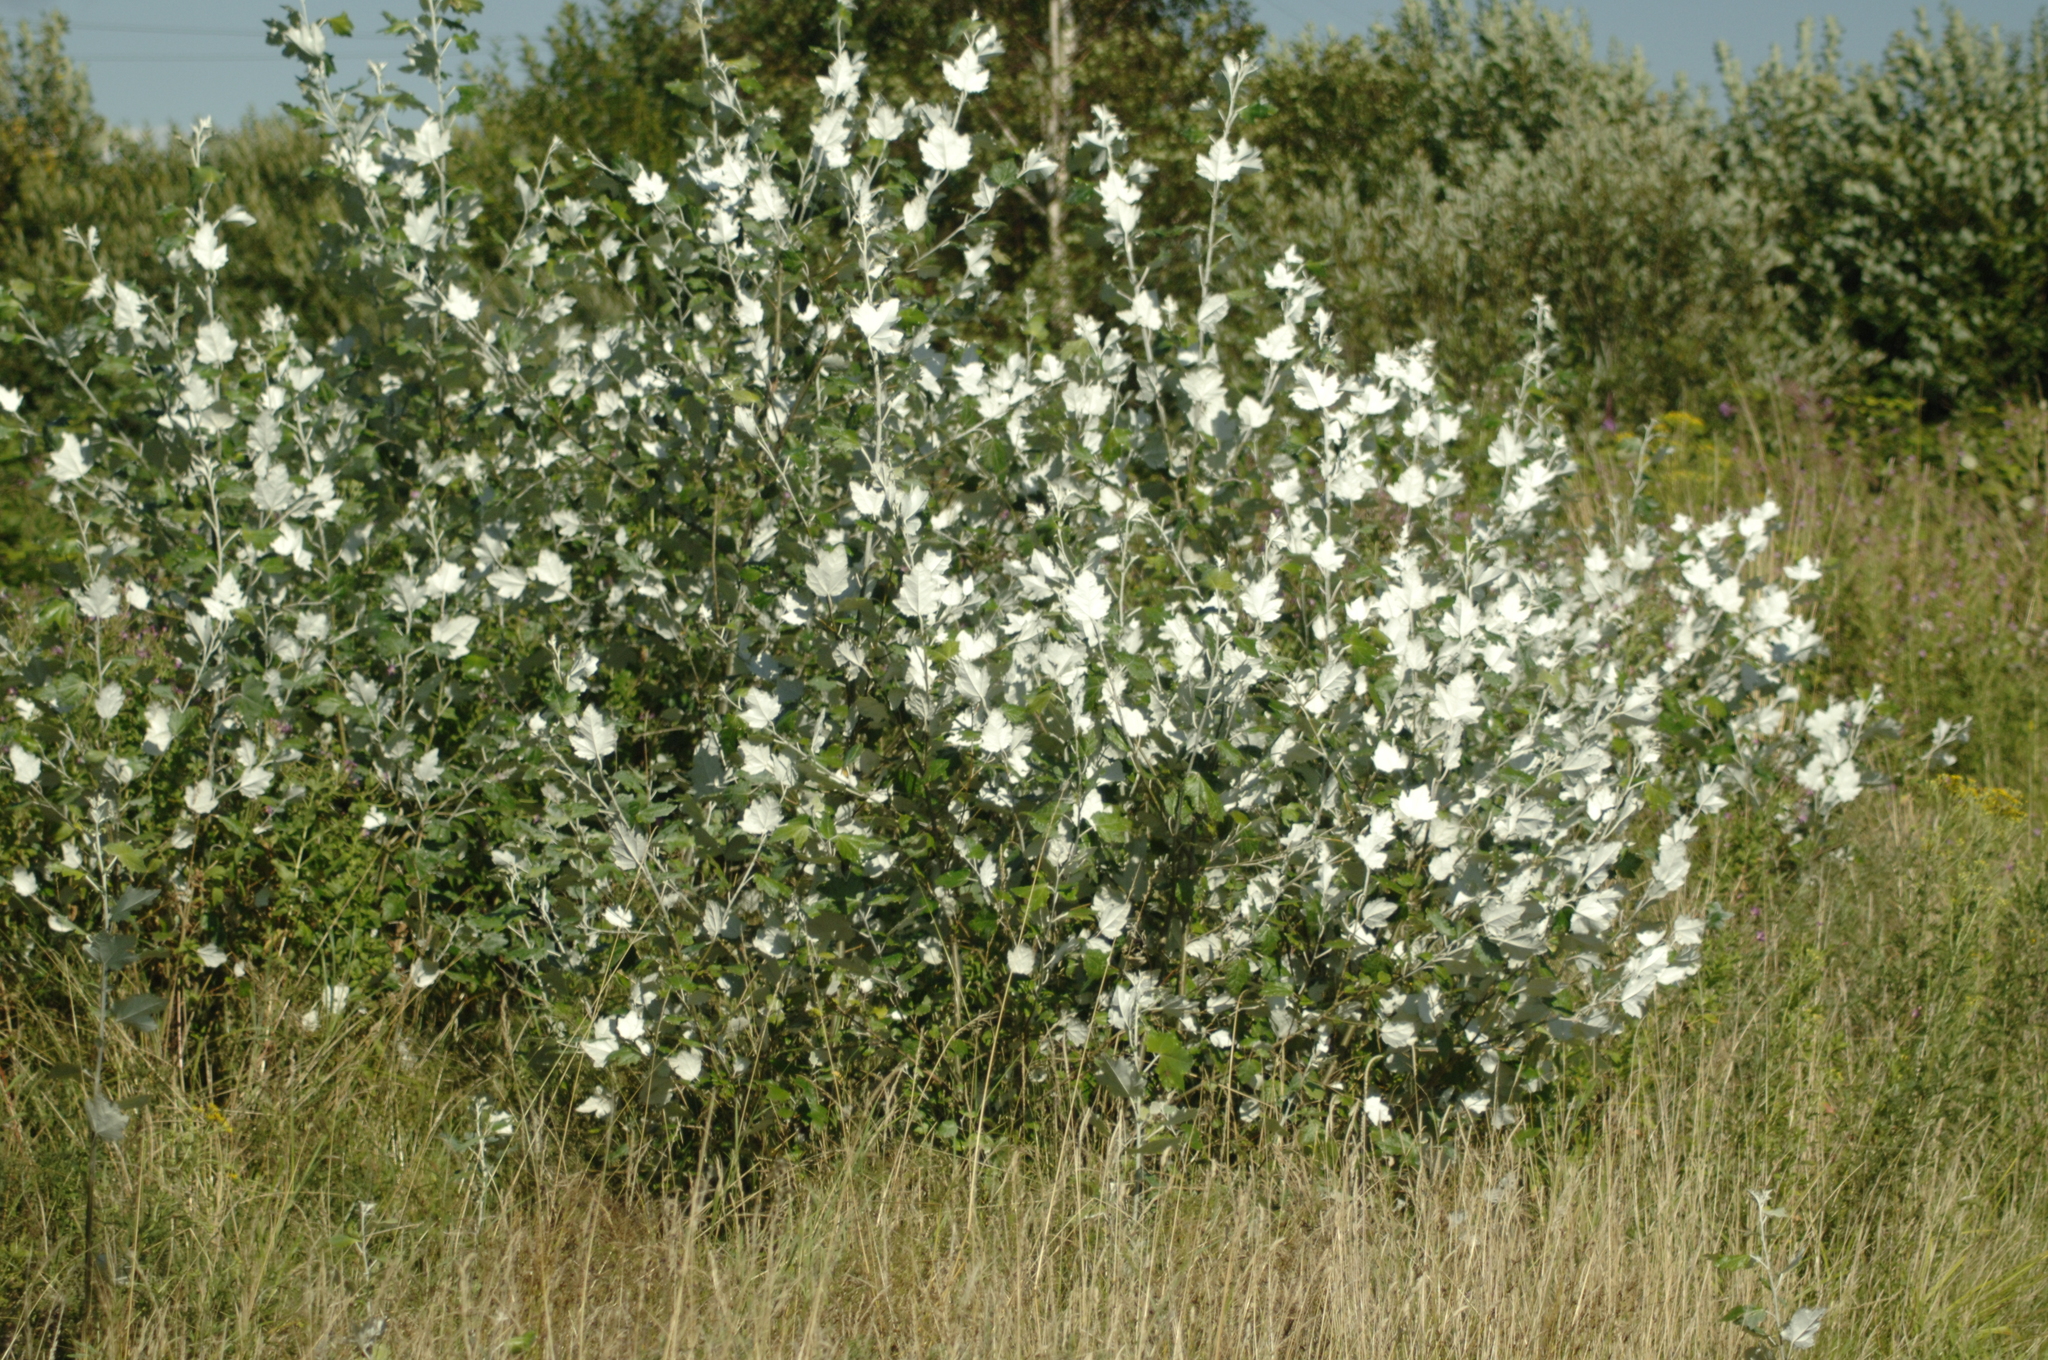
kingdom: Plantae
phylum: Tracheophyta
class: Magnoliopsida
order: Malpighiales
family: Salicaceae
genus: Populus
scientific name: Populus alba
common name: White poplar
